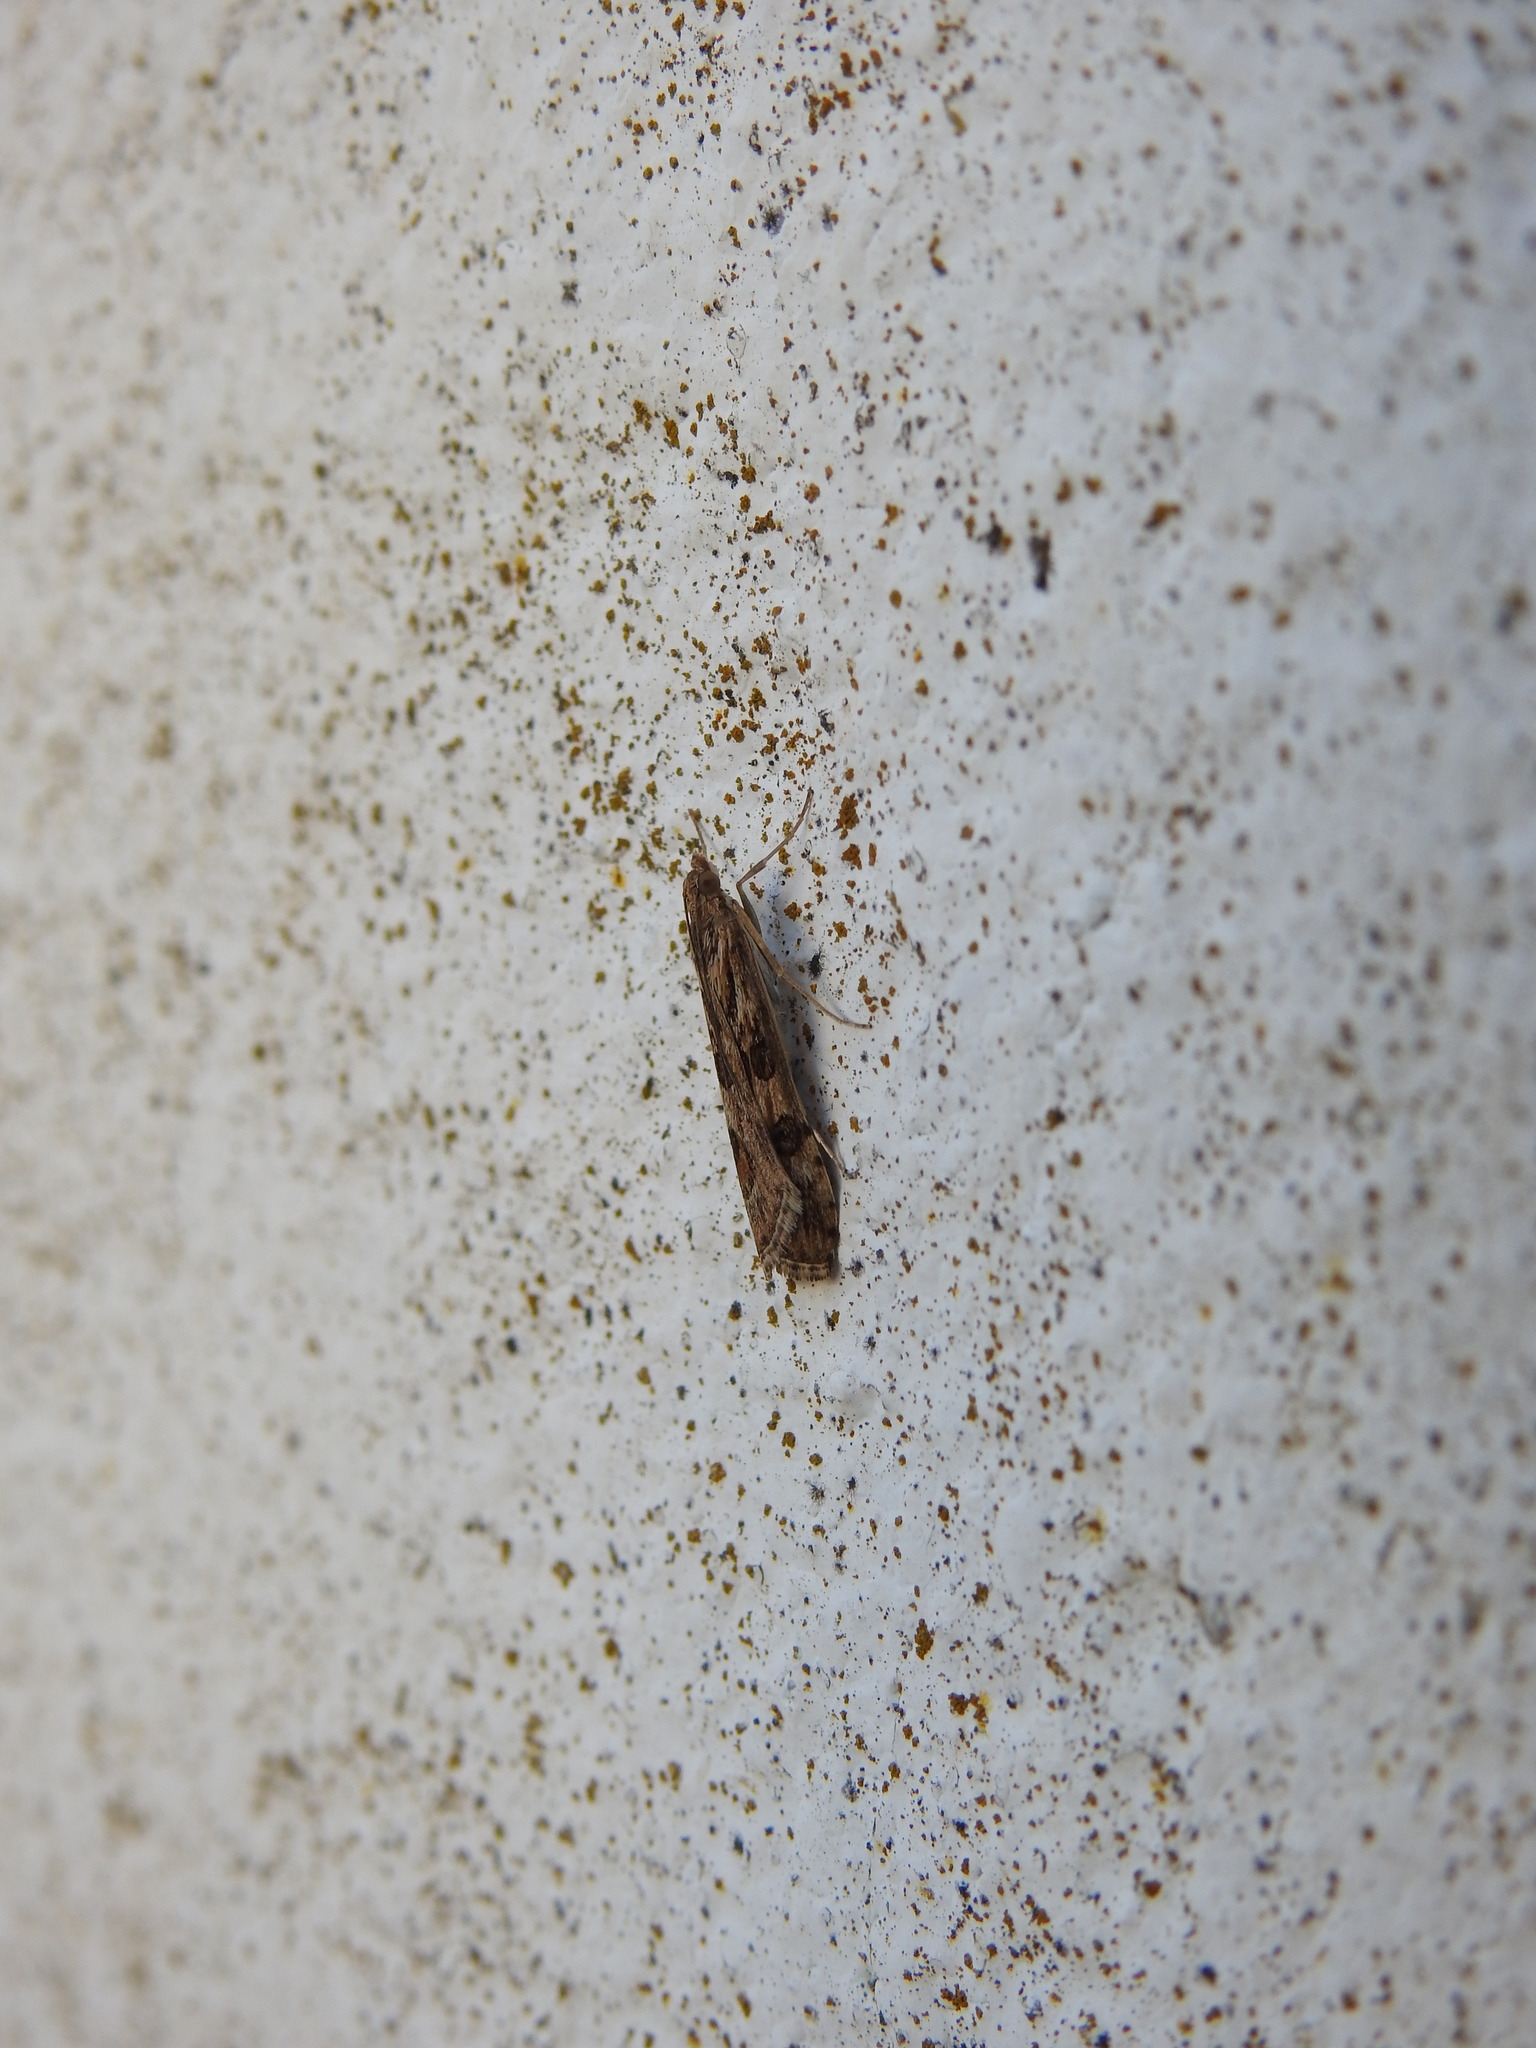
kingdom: Animalia
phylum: Arthropoda
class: Insecta
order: Lepidoptera
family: Crambidae
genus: Nomophila
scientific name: Nomophila noctuella
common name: Rush veneer
